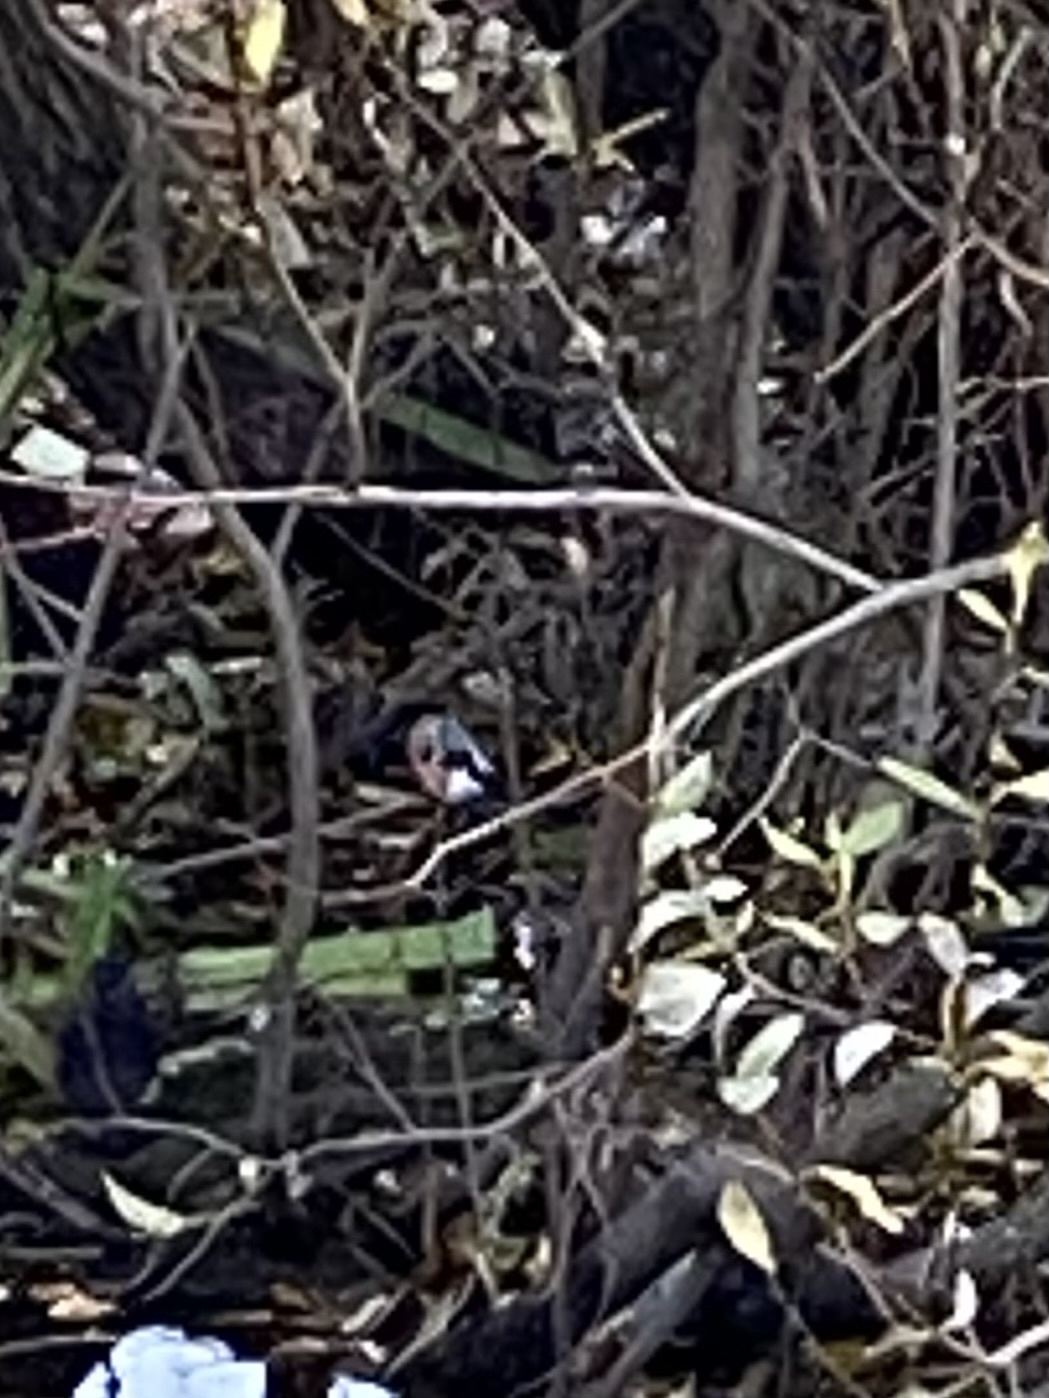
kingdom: Animalia
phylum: Chordata
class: Aves
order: Passeriformes
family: Fringillidae
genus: Pyrrhula
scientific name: Pyrrhula pyrrhula
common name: Eurasian bullfinch
